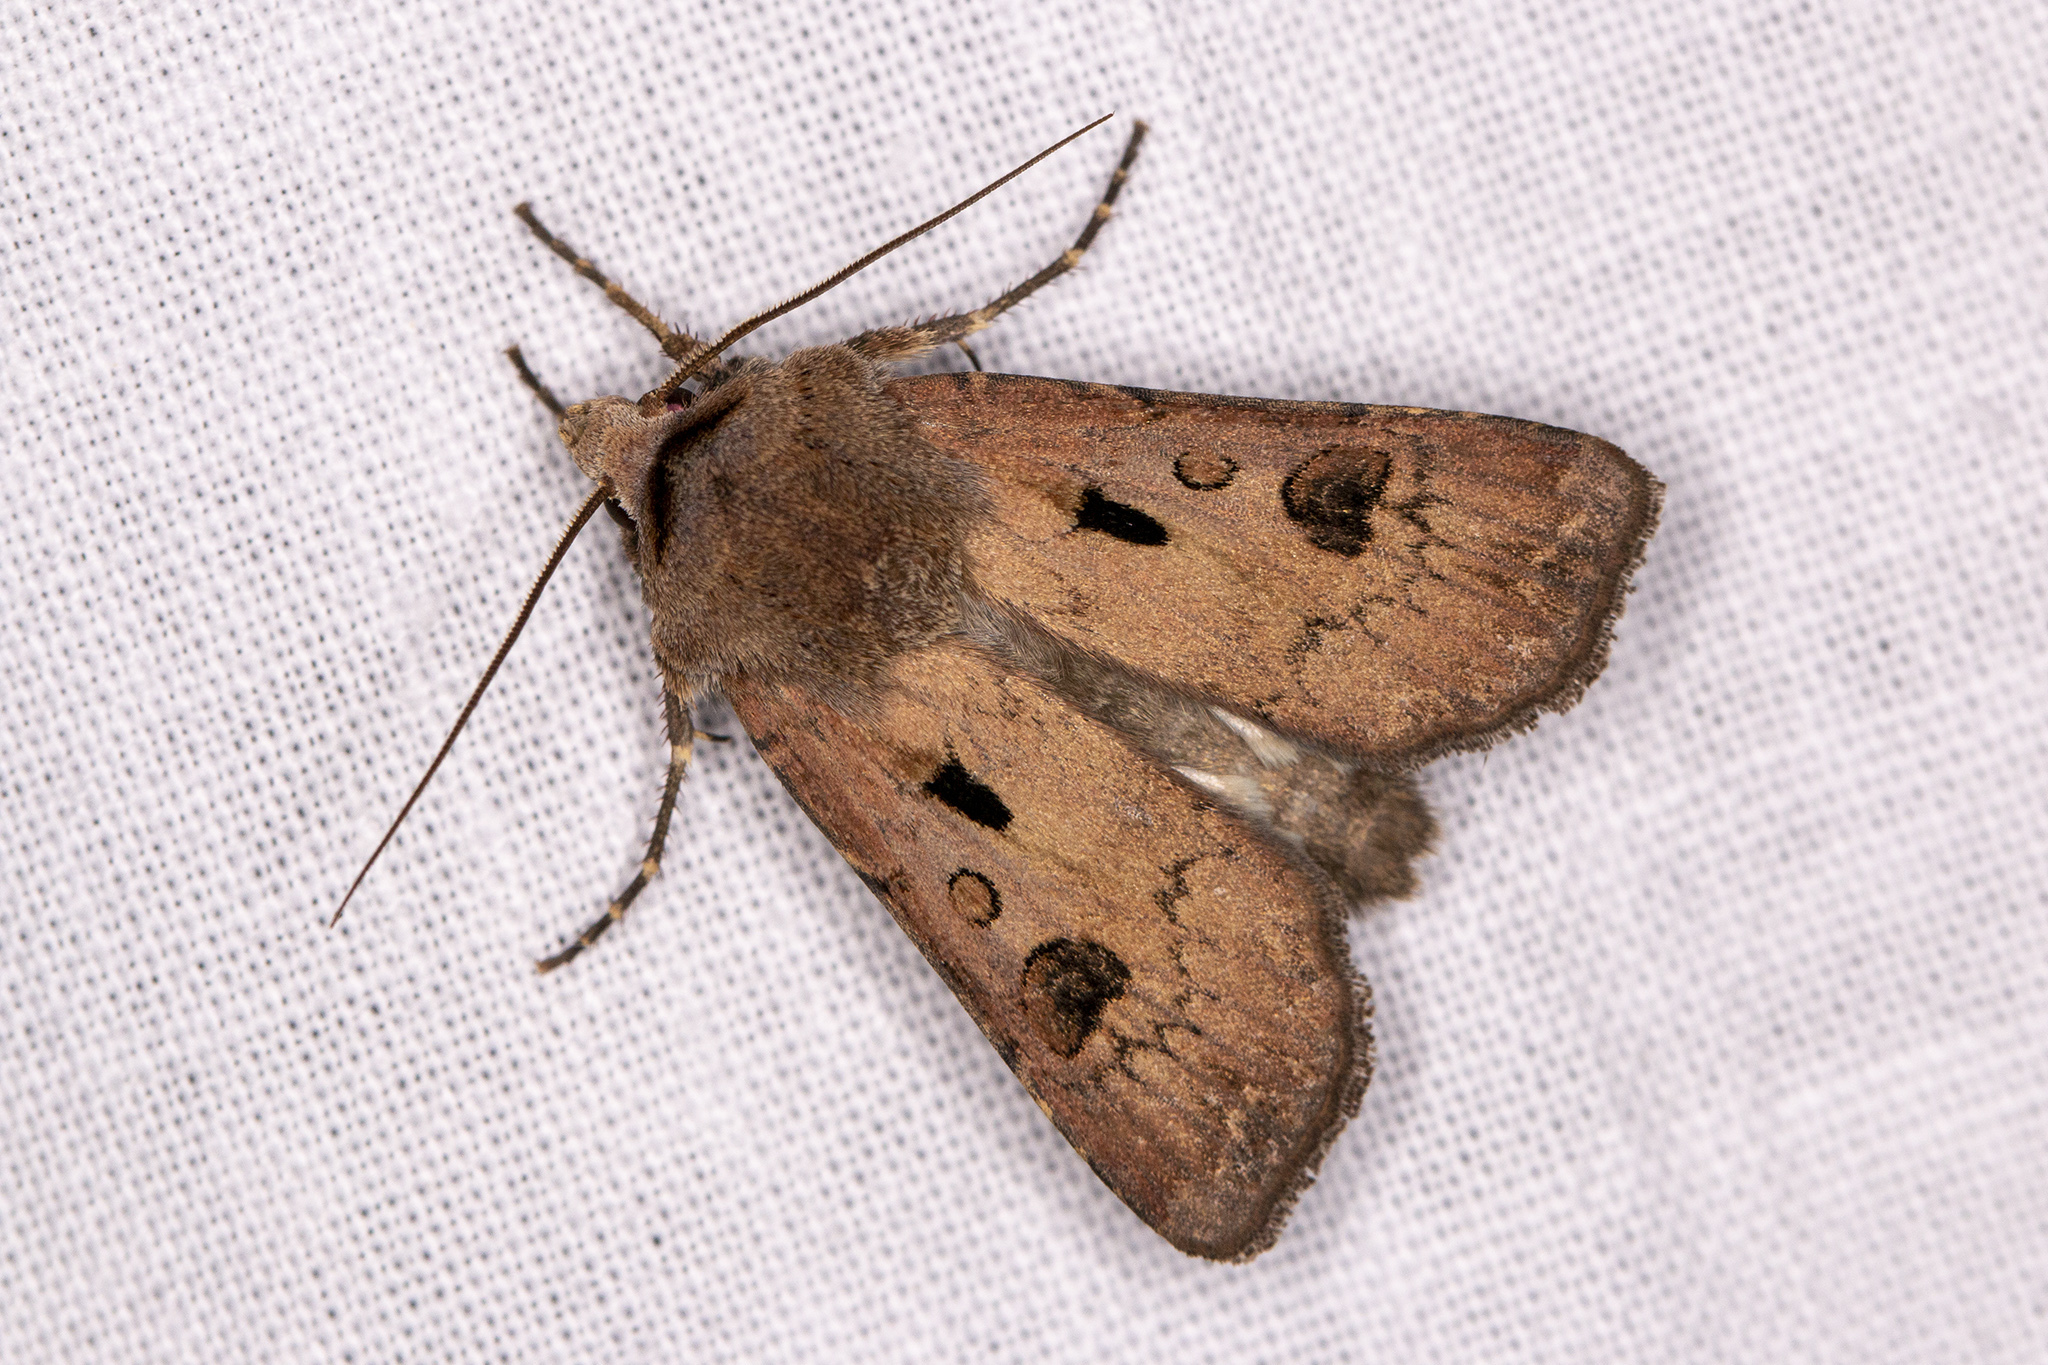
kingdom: Animalia
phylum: Arthropoda
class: Insecta
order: Lepidoptera
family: Noctuidae
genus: Agrotis
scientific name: Agrotis exclamationis
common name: Heart and dart
